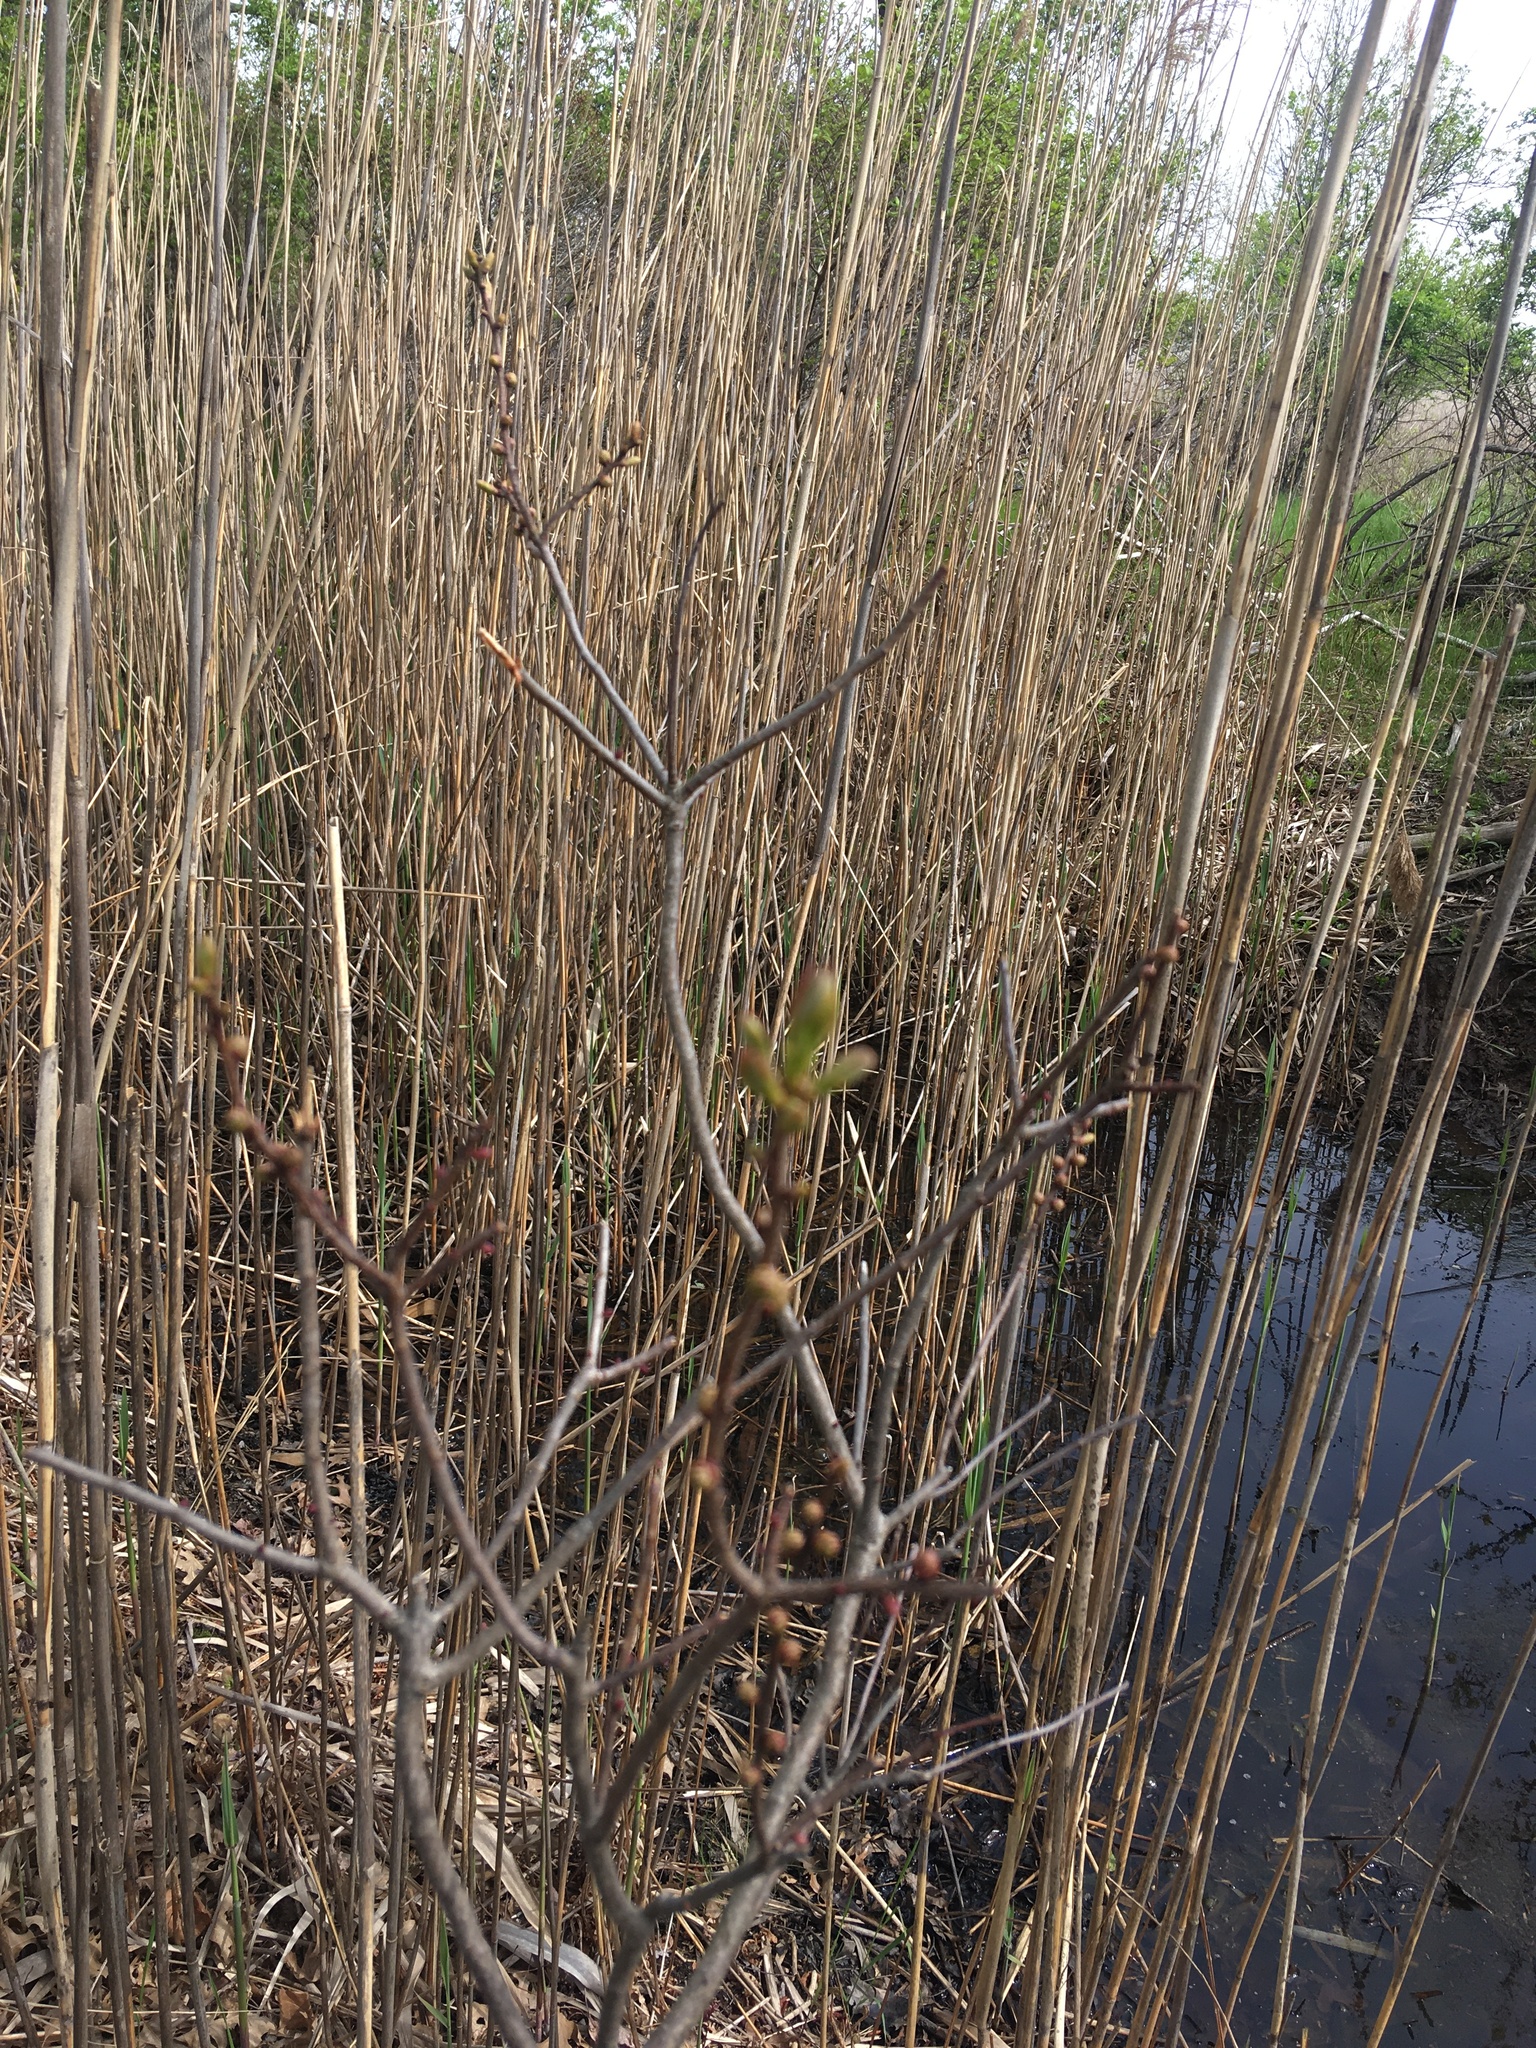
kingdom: Plantae
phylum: Tracheophyta
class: Magnoliopsida
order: Sapindales
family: Anacardiaceae
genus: Rhus
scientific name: Rhus aromatica
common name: Aromatic sumac
